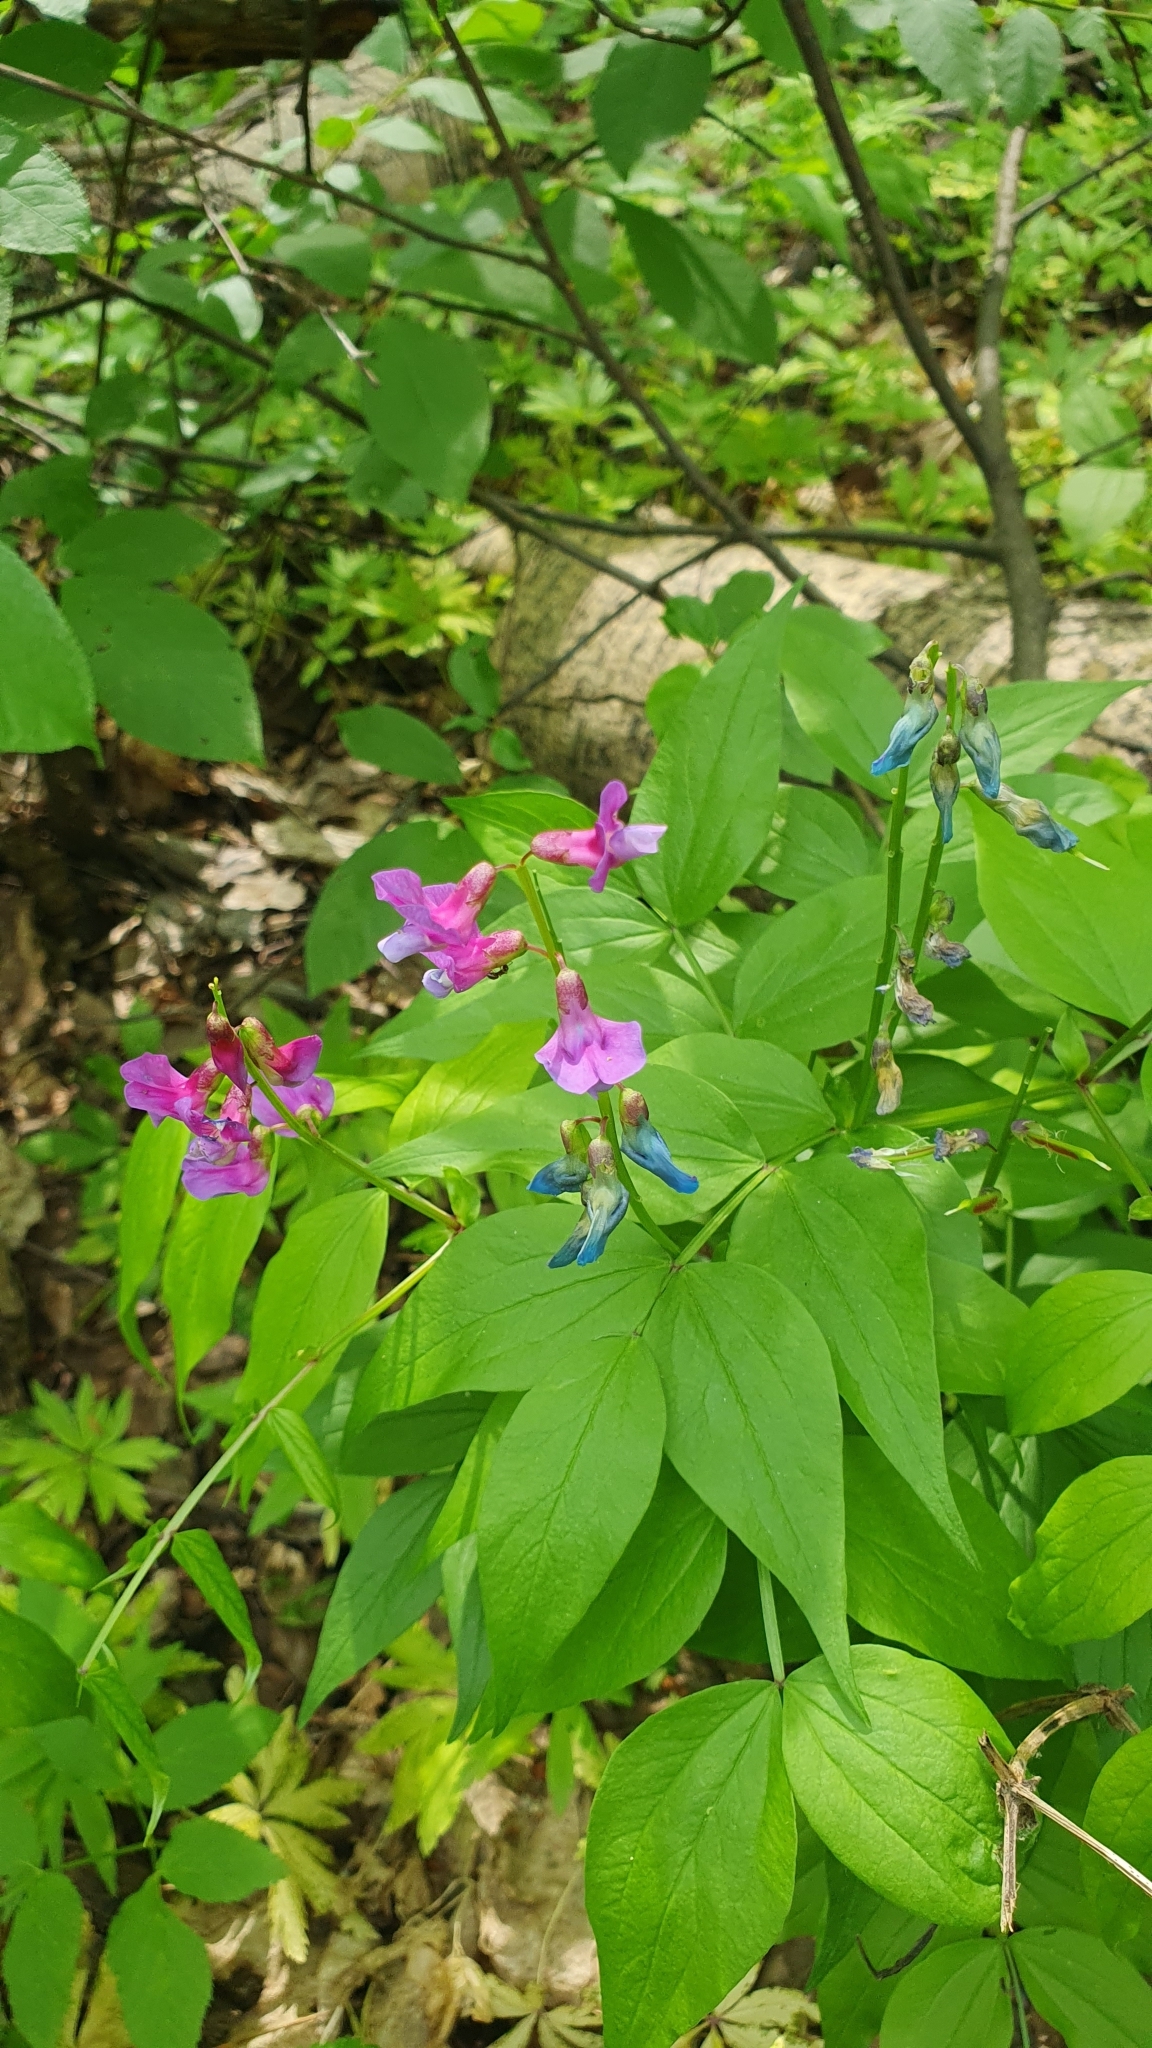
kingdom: Plantae
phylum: Tracheophyta
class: Magnoliopsida
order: Fabales
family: Fabaceae
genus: Lathyrus
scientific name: Lathyrus vernus
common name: Spring pea
